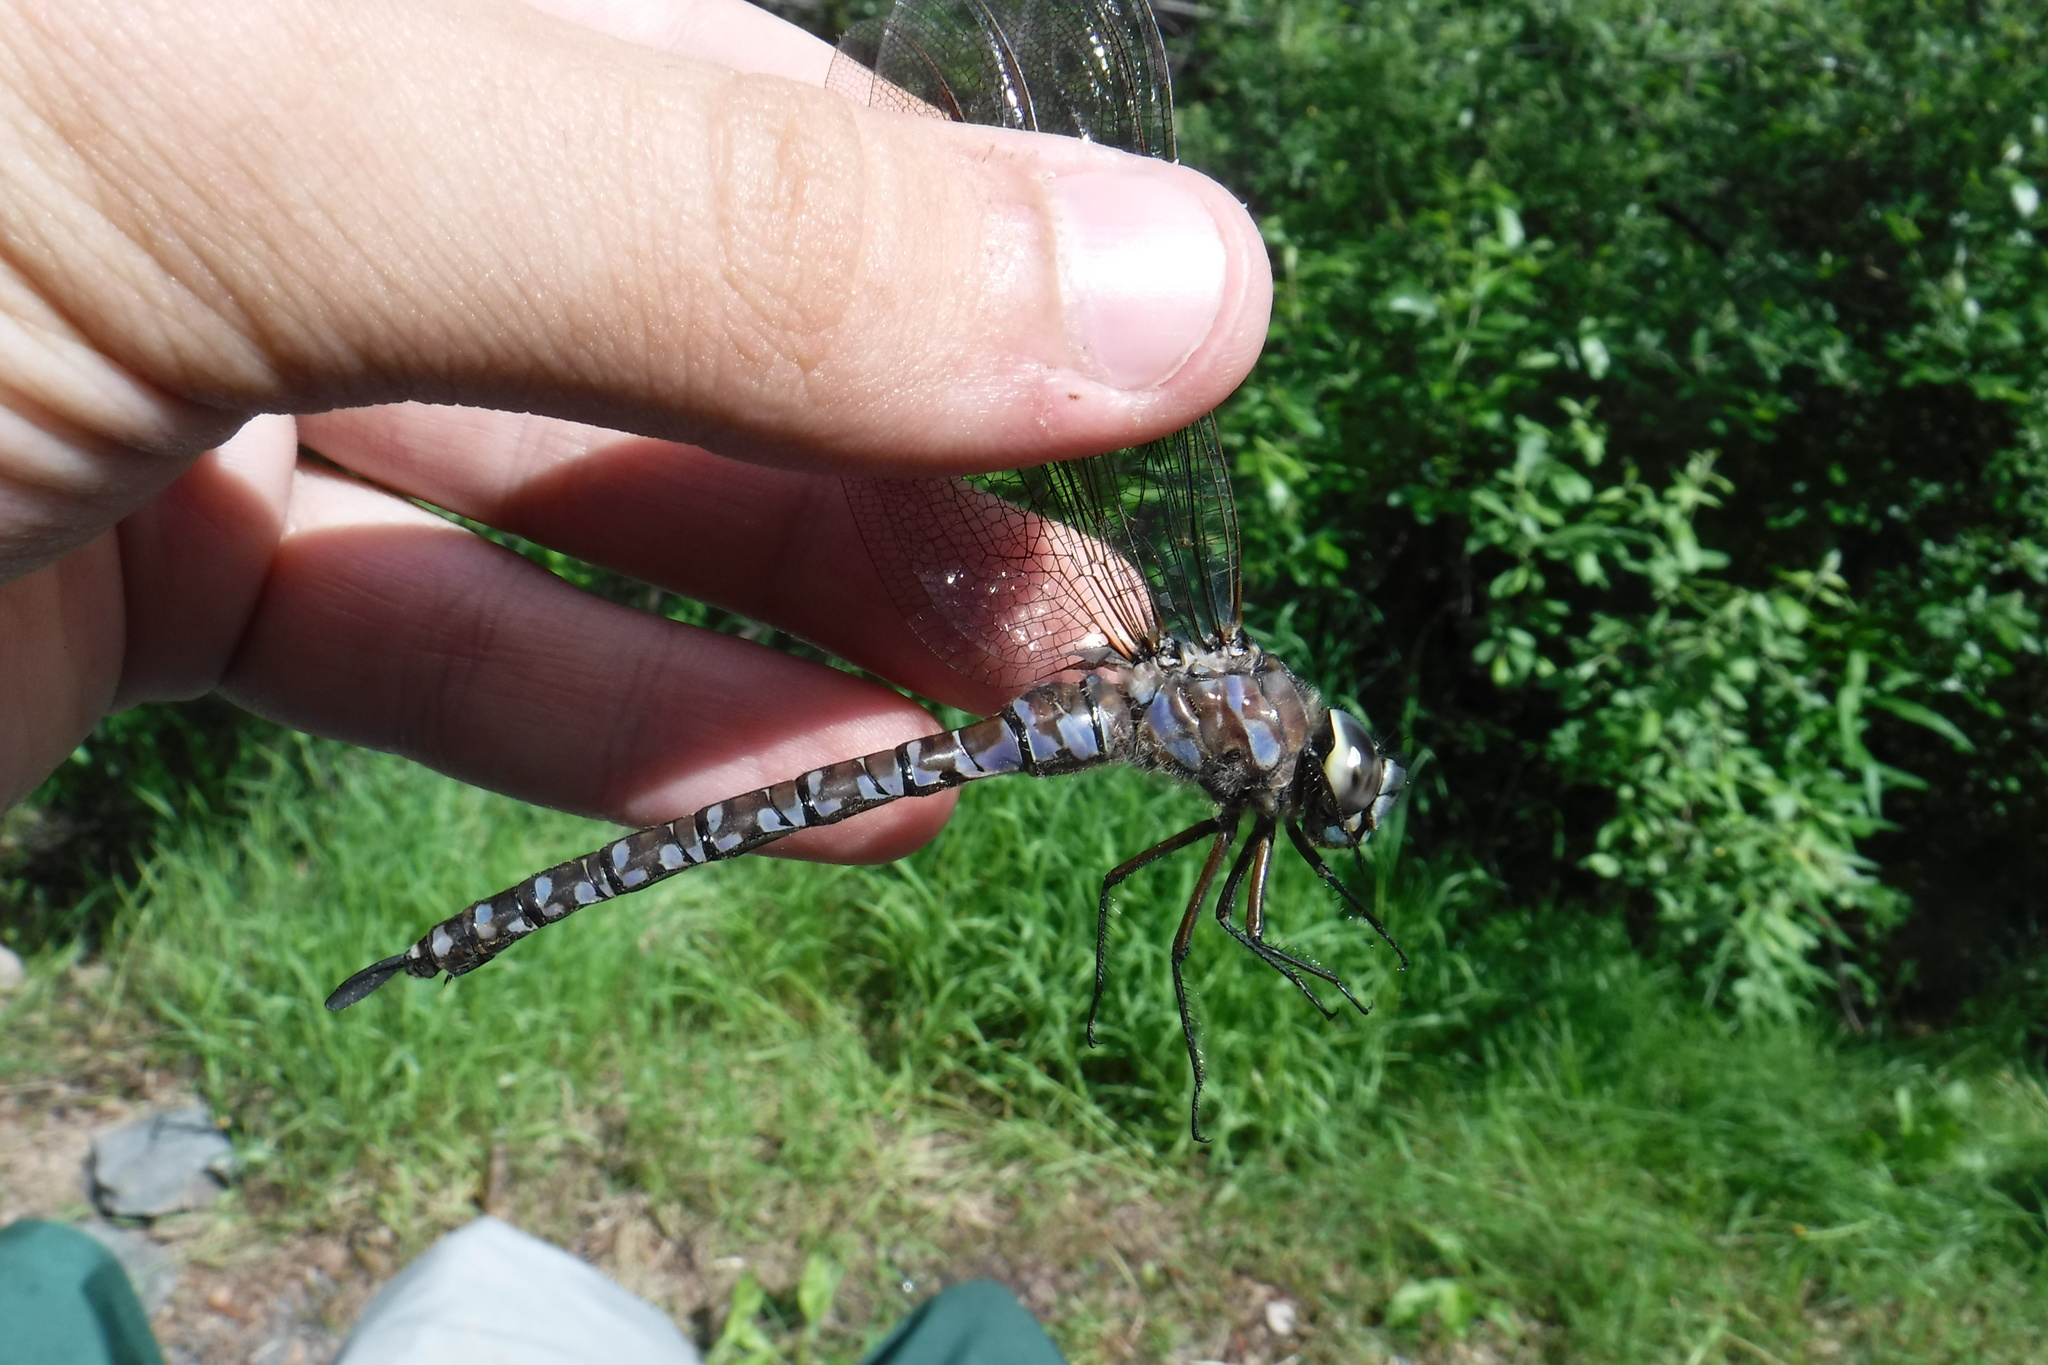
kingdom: Animalia
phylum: Arthropoda
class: Insecta
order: Odonata
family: Aeshnidae
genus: Aeshna
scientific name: Aeshna eremita
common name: Lake darner
